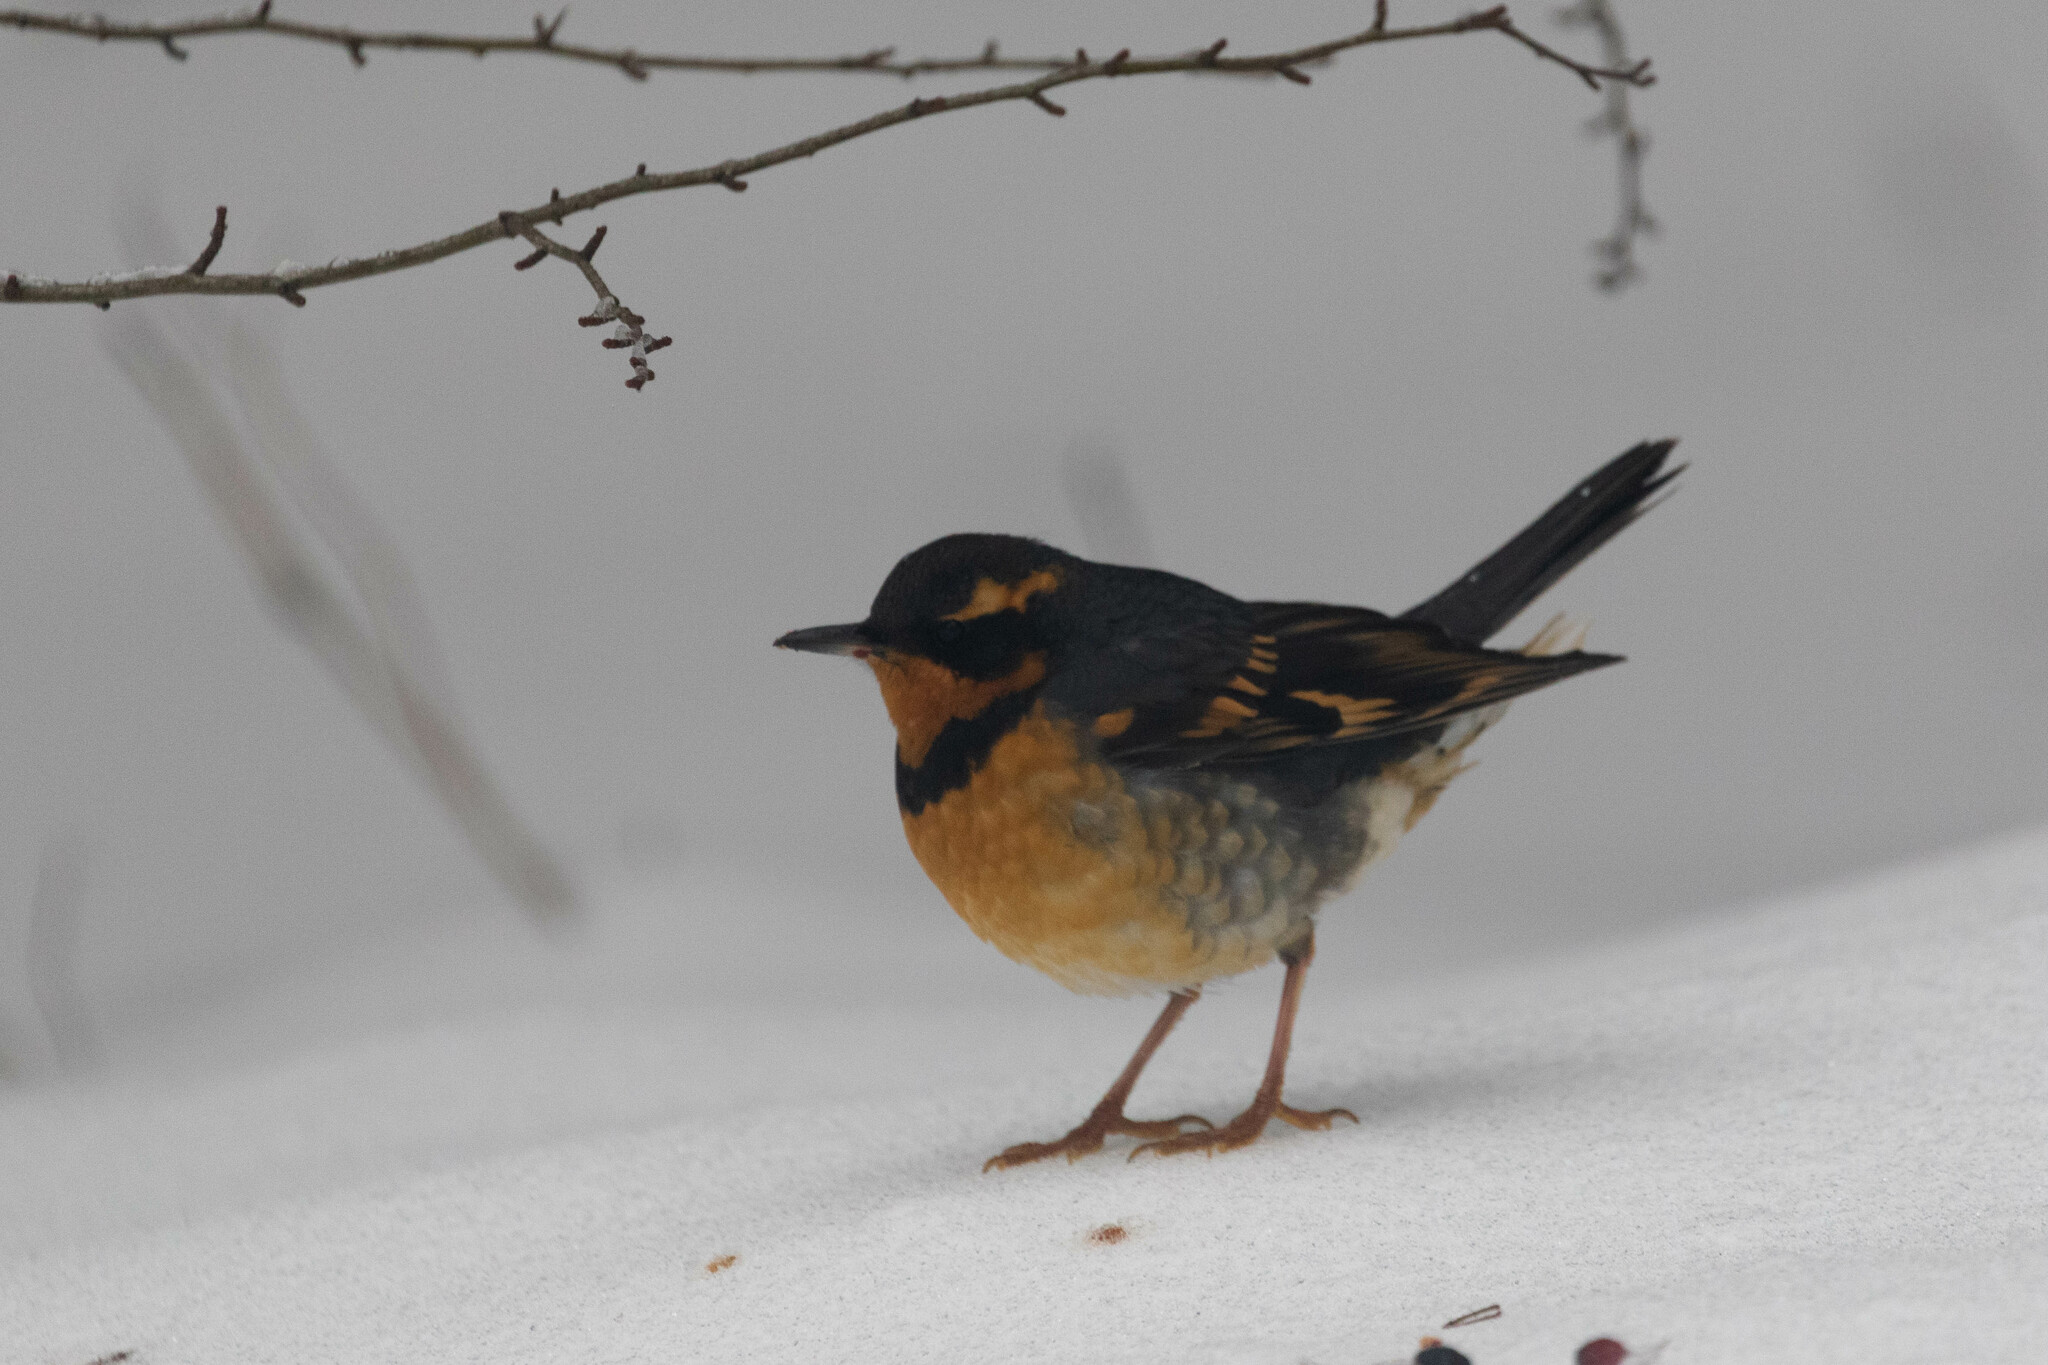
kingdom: Animalia
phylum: Chordata
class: Aves
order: Passeriformes
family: Turdidae
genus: Ixoreus
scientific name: Ixoreus naevius
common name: Varied thrush
